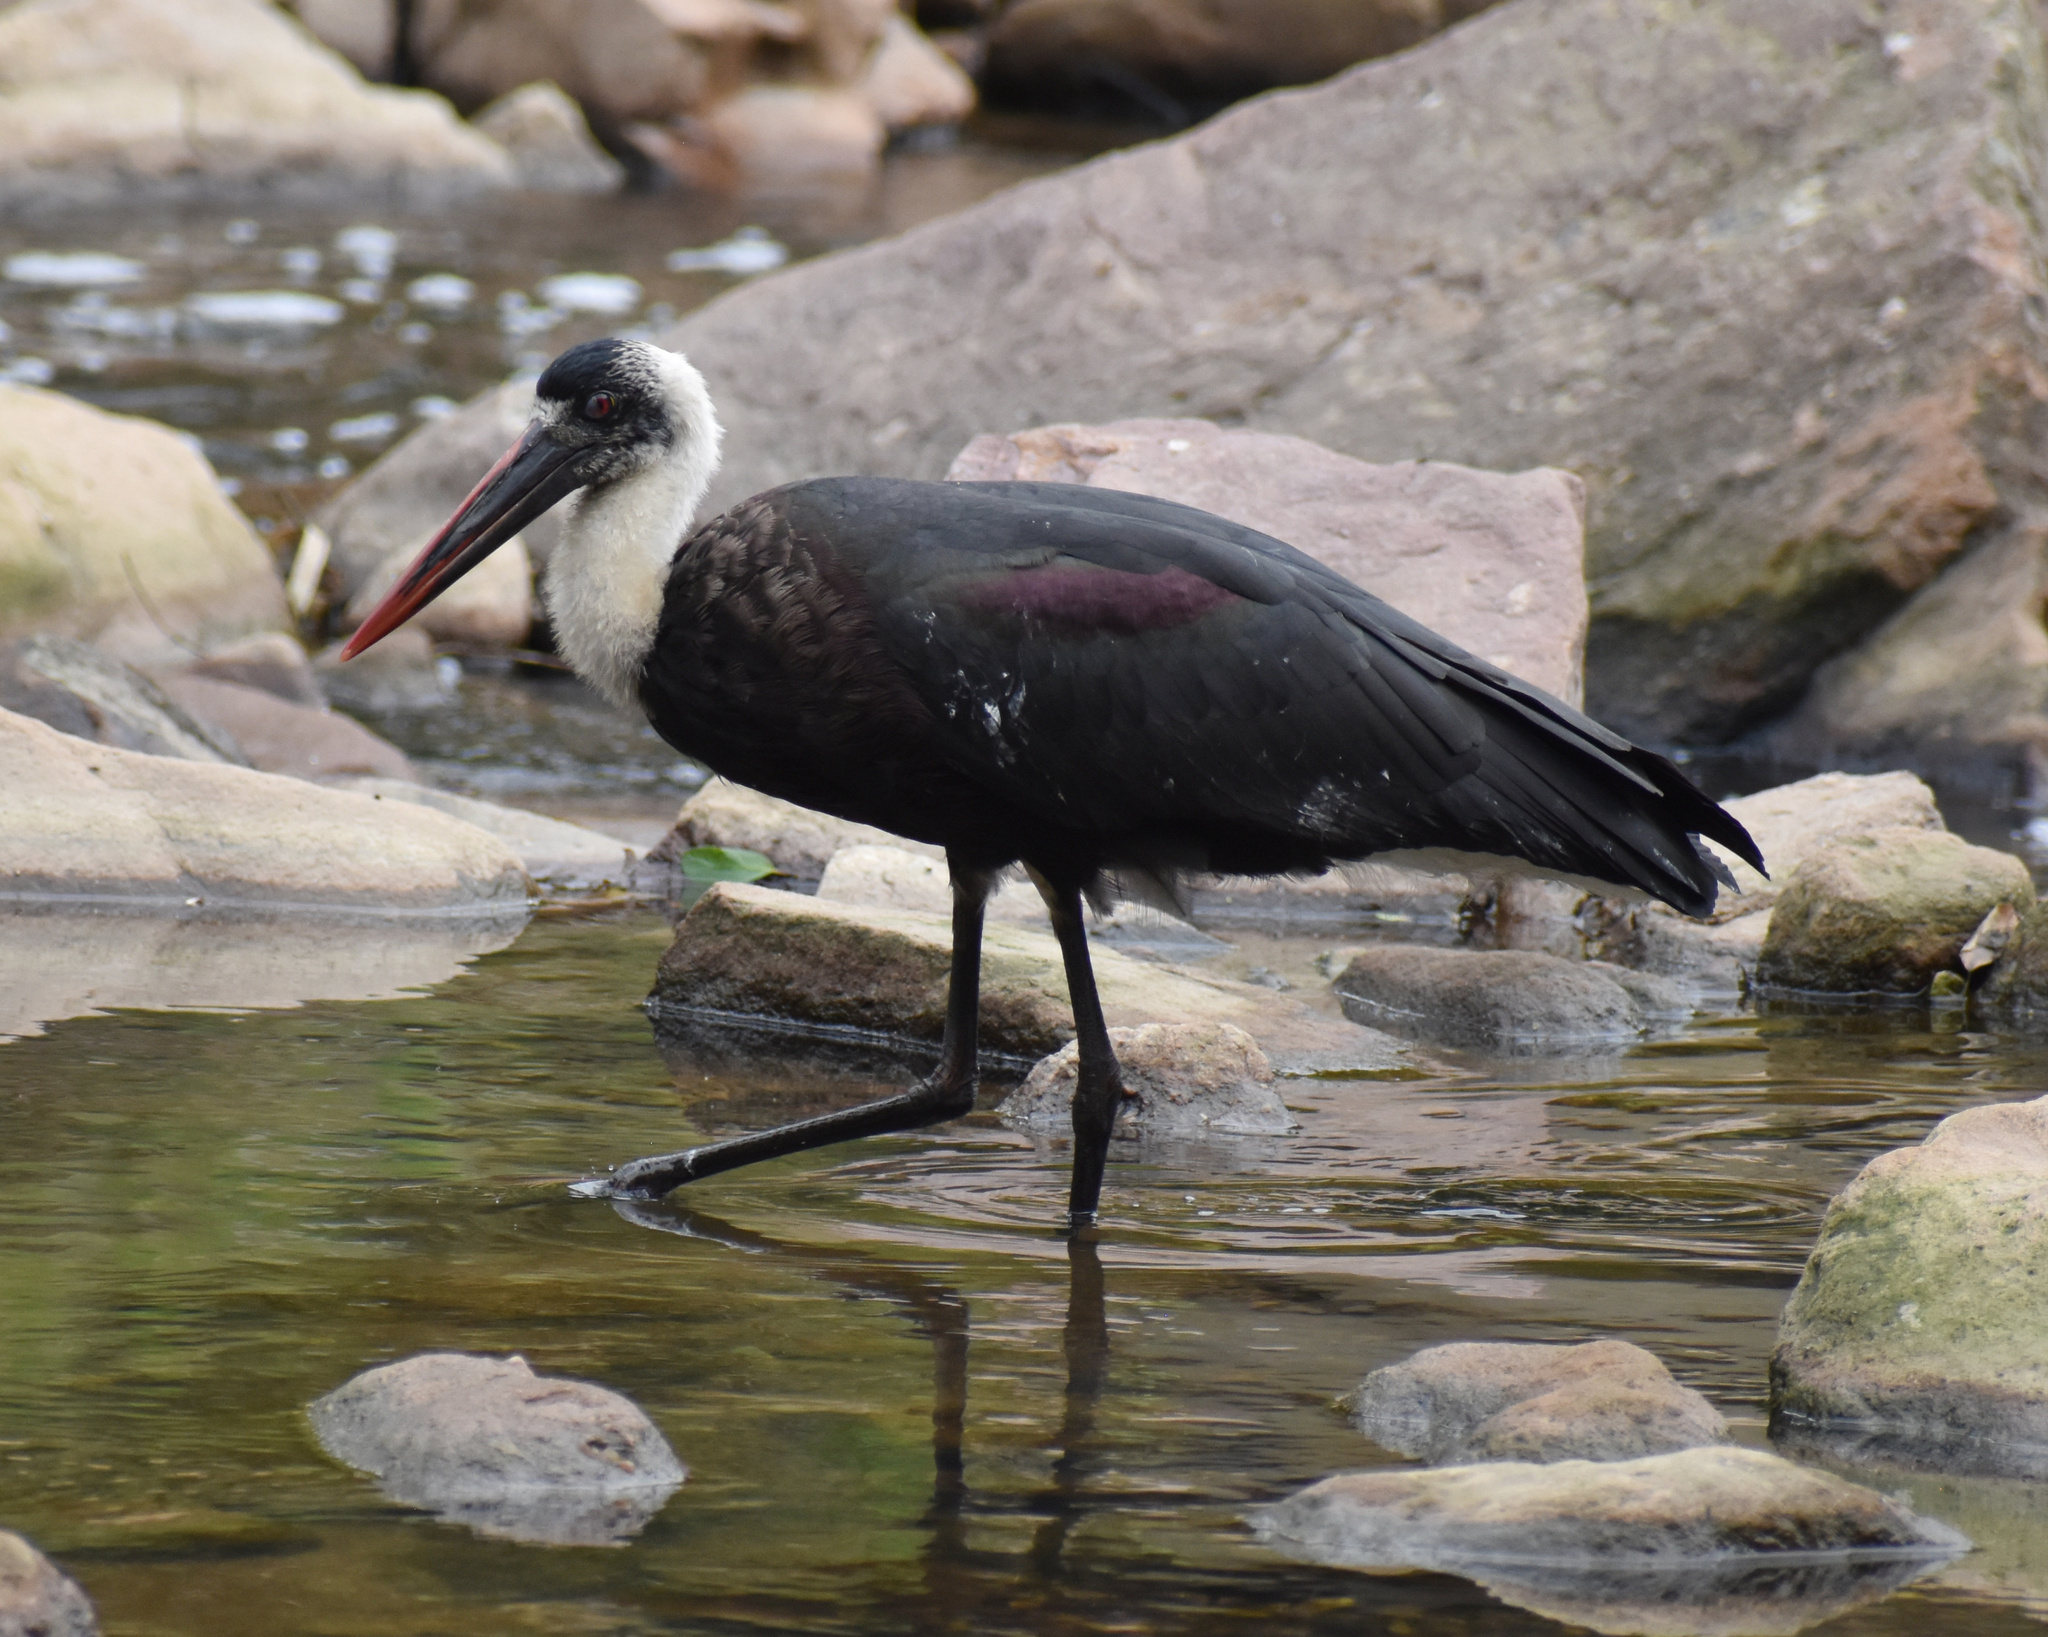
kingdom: Animalia
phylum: Chordata
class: Aves
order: Ciconiiformes
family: Ciconiidae
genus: Ciconia
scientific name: Ciconia microscelis
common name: African woollyneck
